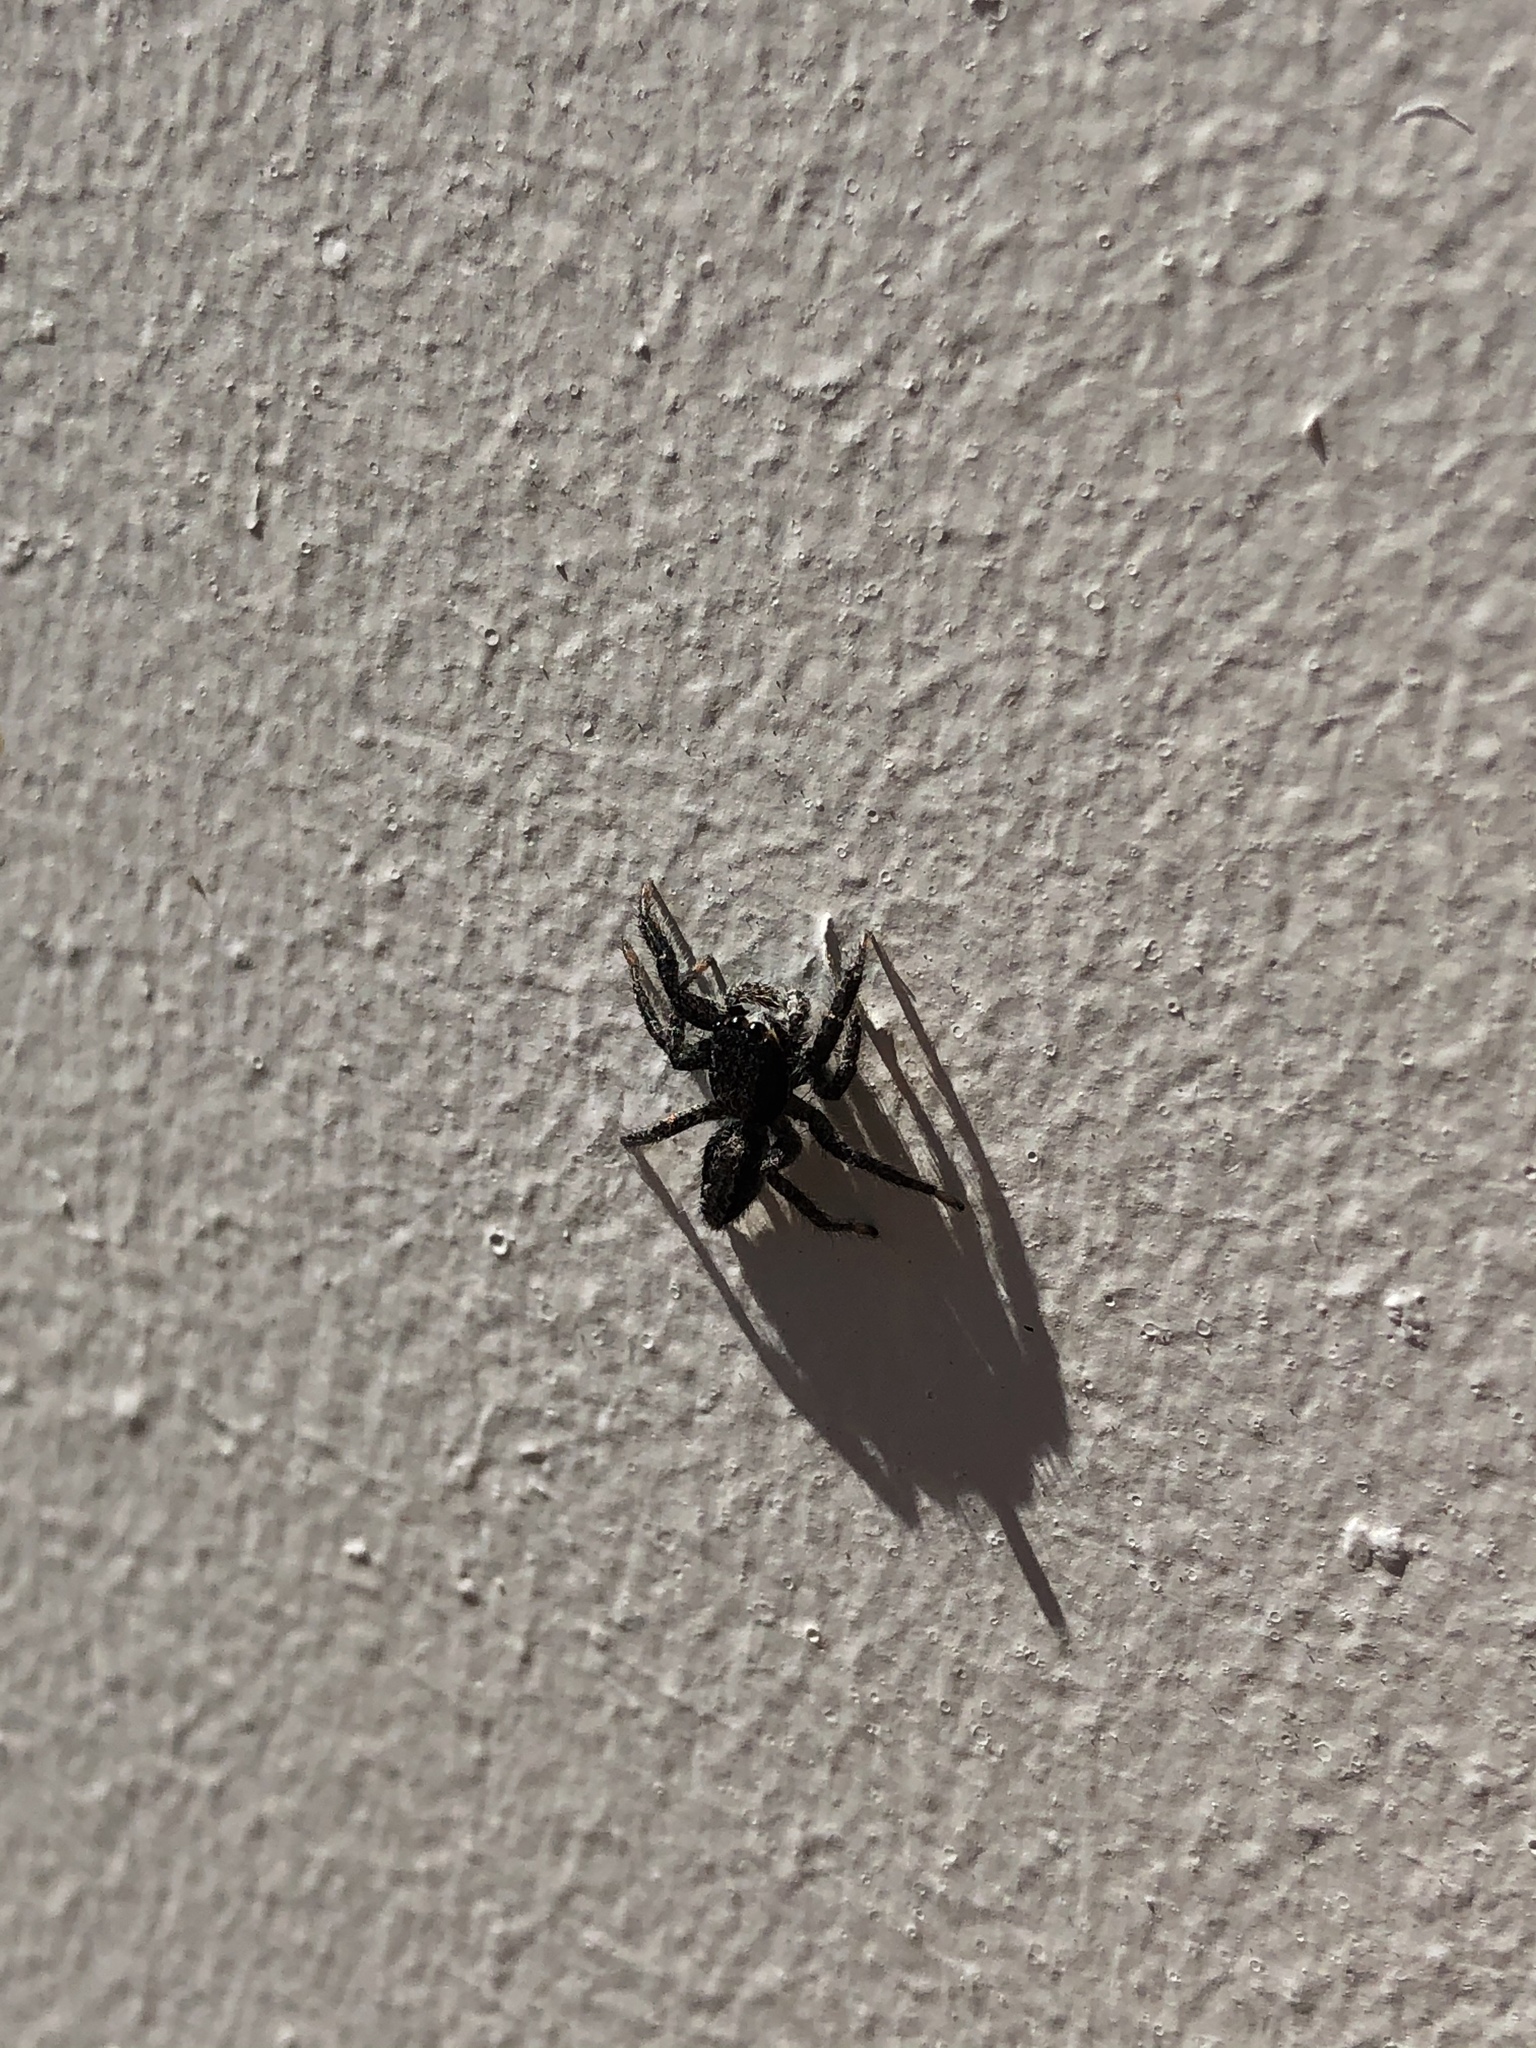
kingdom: Animalia
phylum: Arthropoda
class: Arachnida
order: Araneae
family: Salticidae
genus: Platycryptus
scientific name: Platycryptus californicus
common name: Jumping spiders
